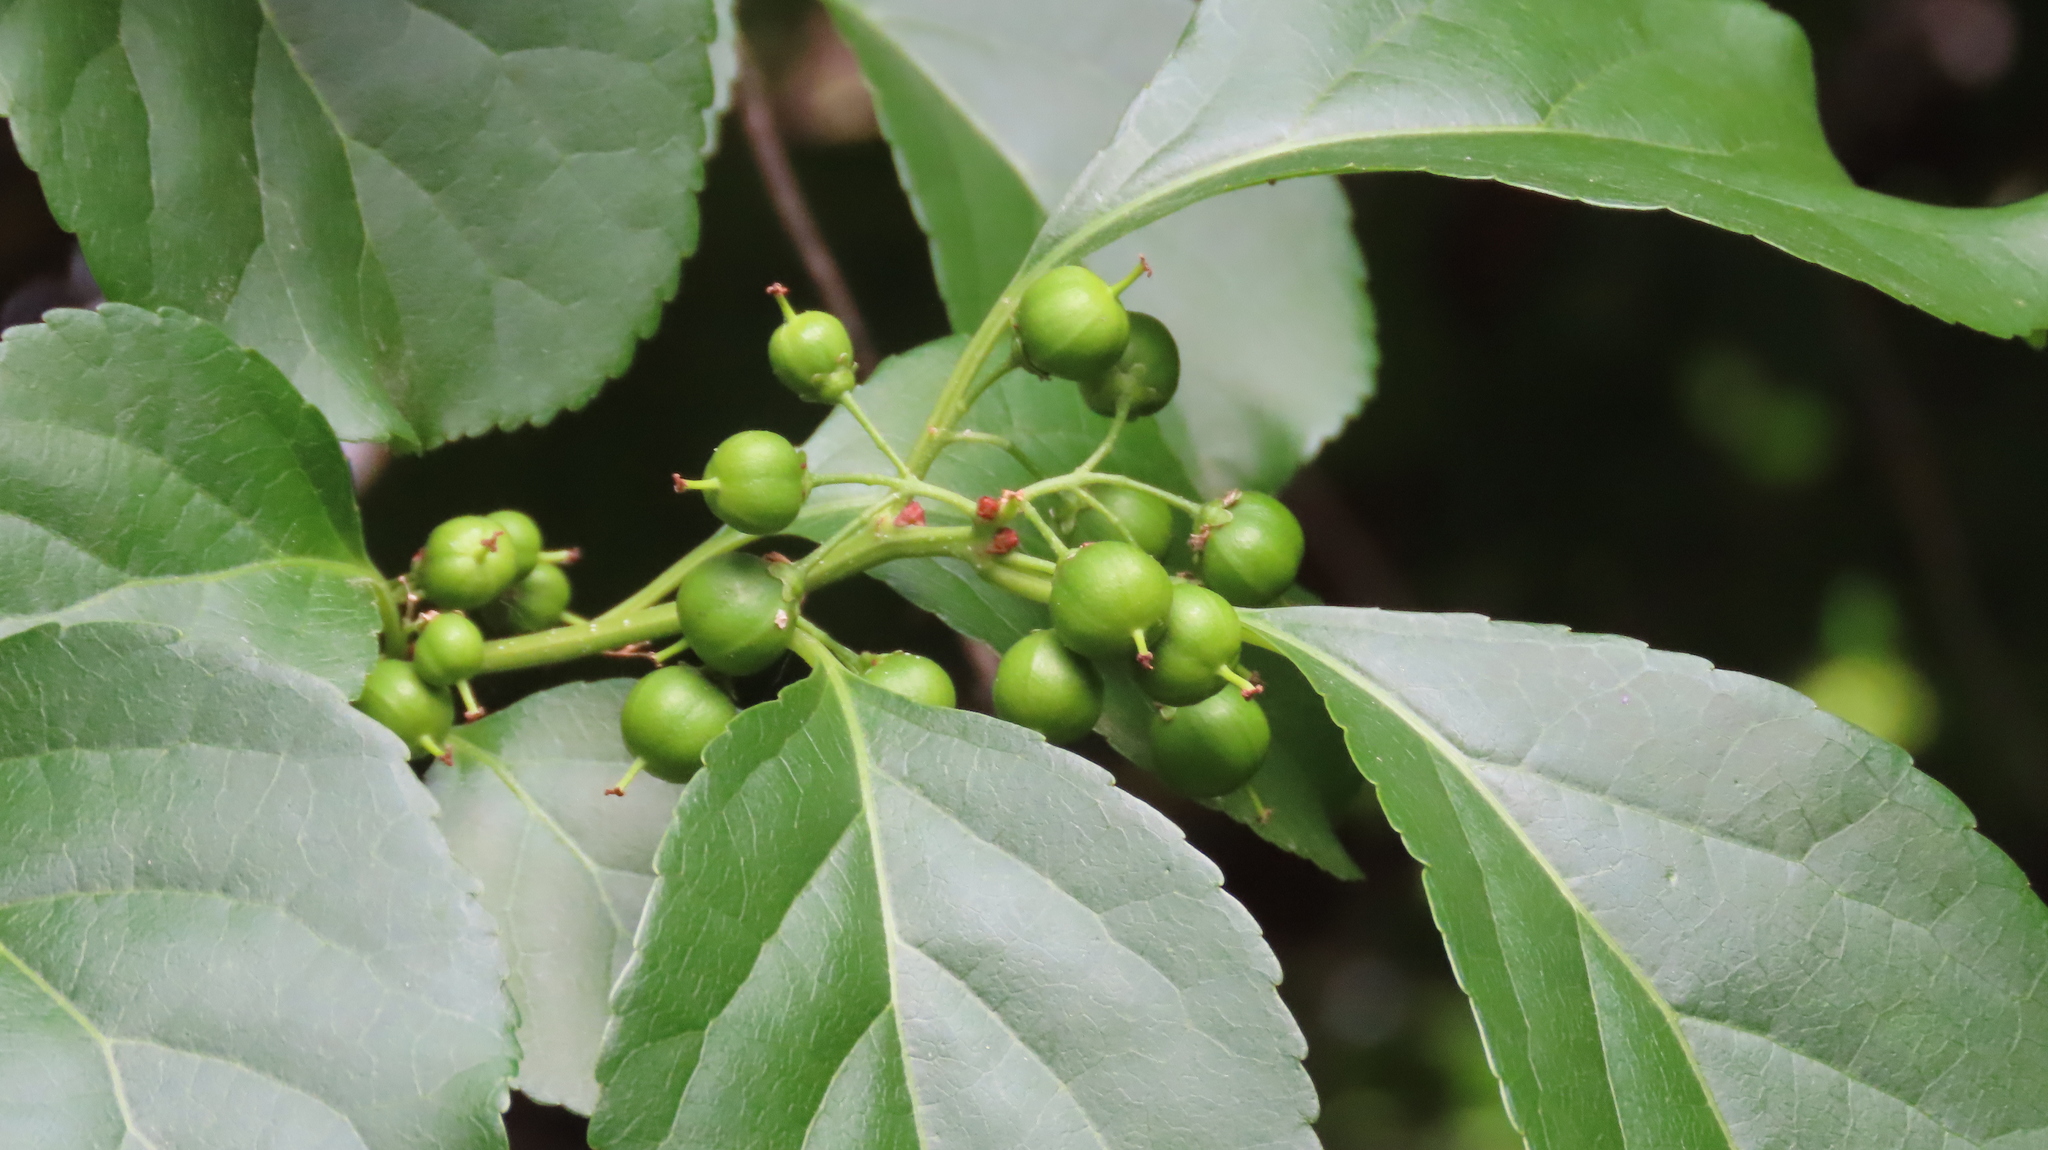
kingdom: Plantae
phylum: Tracheophyta
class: Magnoliopsida
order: Celastrales
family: Celastraceae
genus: Celastrus
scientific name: Celastrus orbiculatus
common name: Oriental bittersweet
